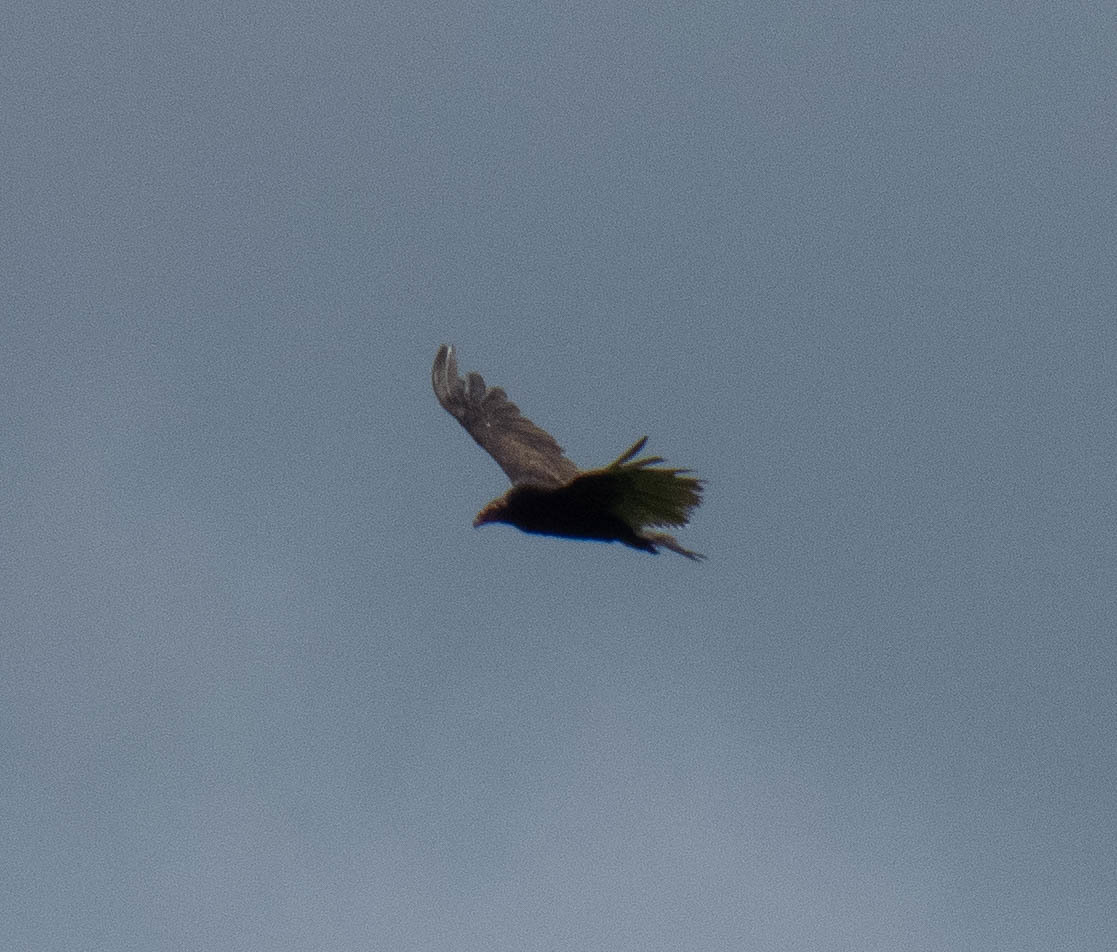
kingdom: Animalia
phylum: Chordata
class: Aves
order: Accipitriformes
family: Cathartidae
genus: Cathartes
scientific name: Cathartes aura
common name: Turkey vulture
